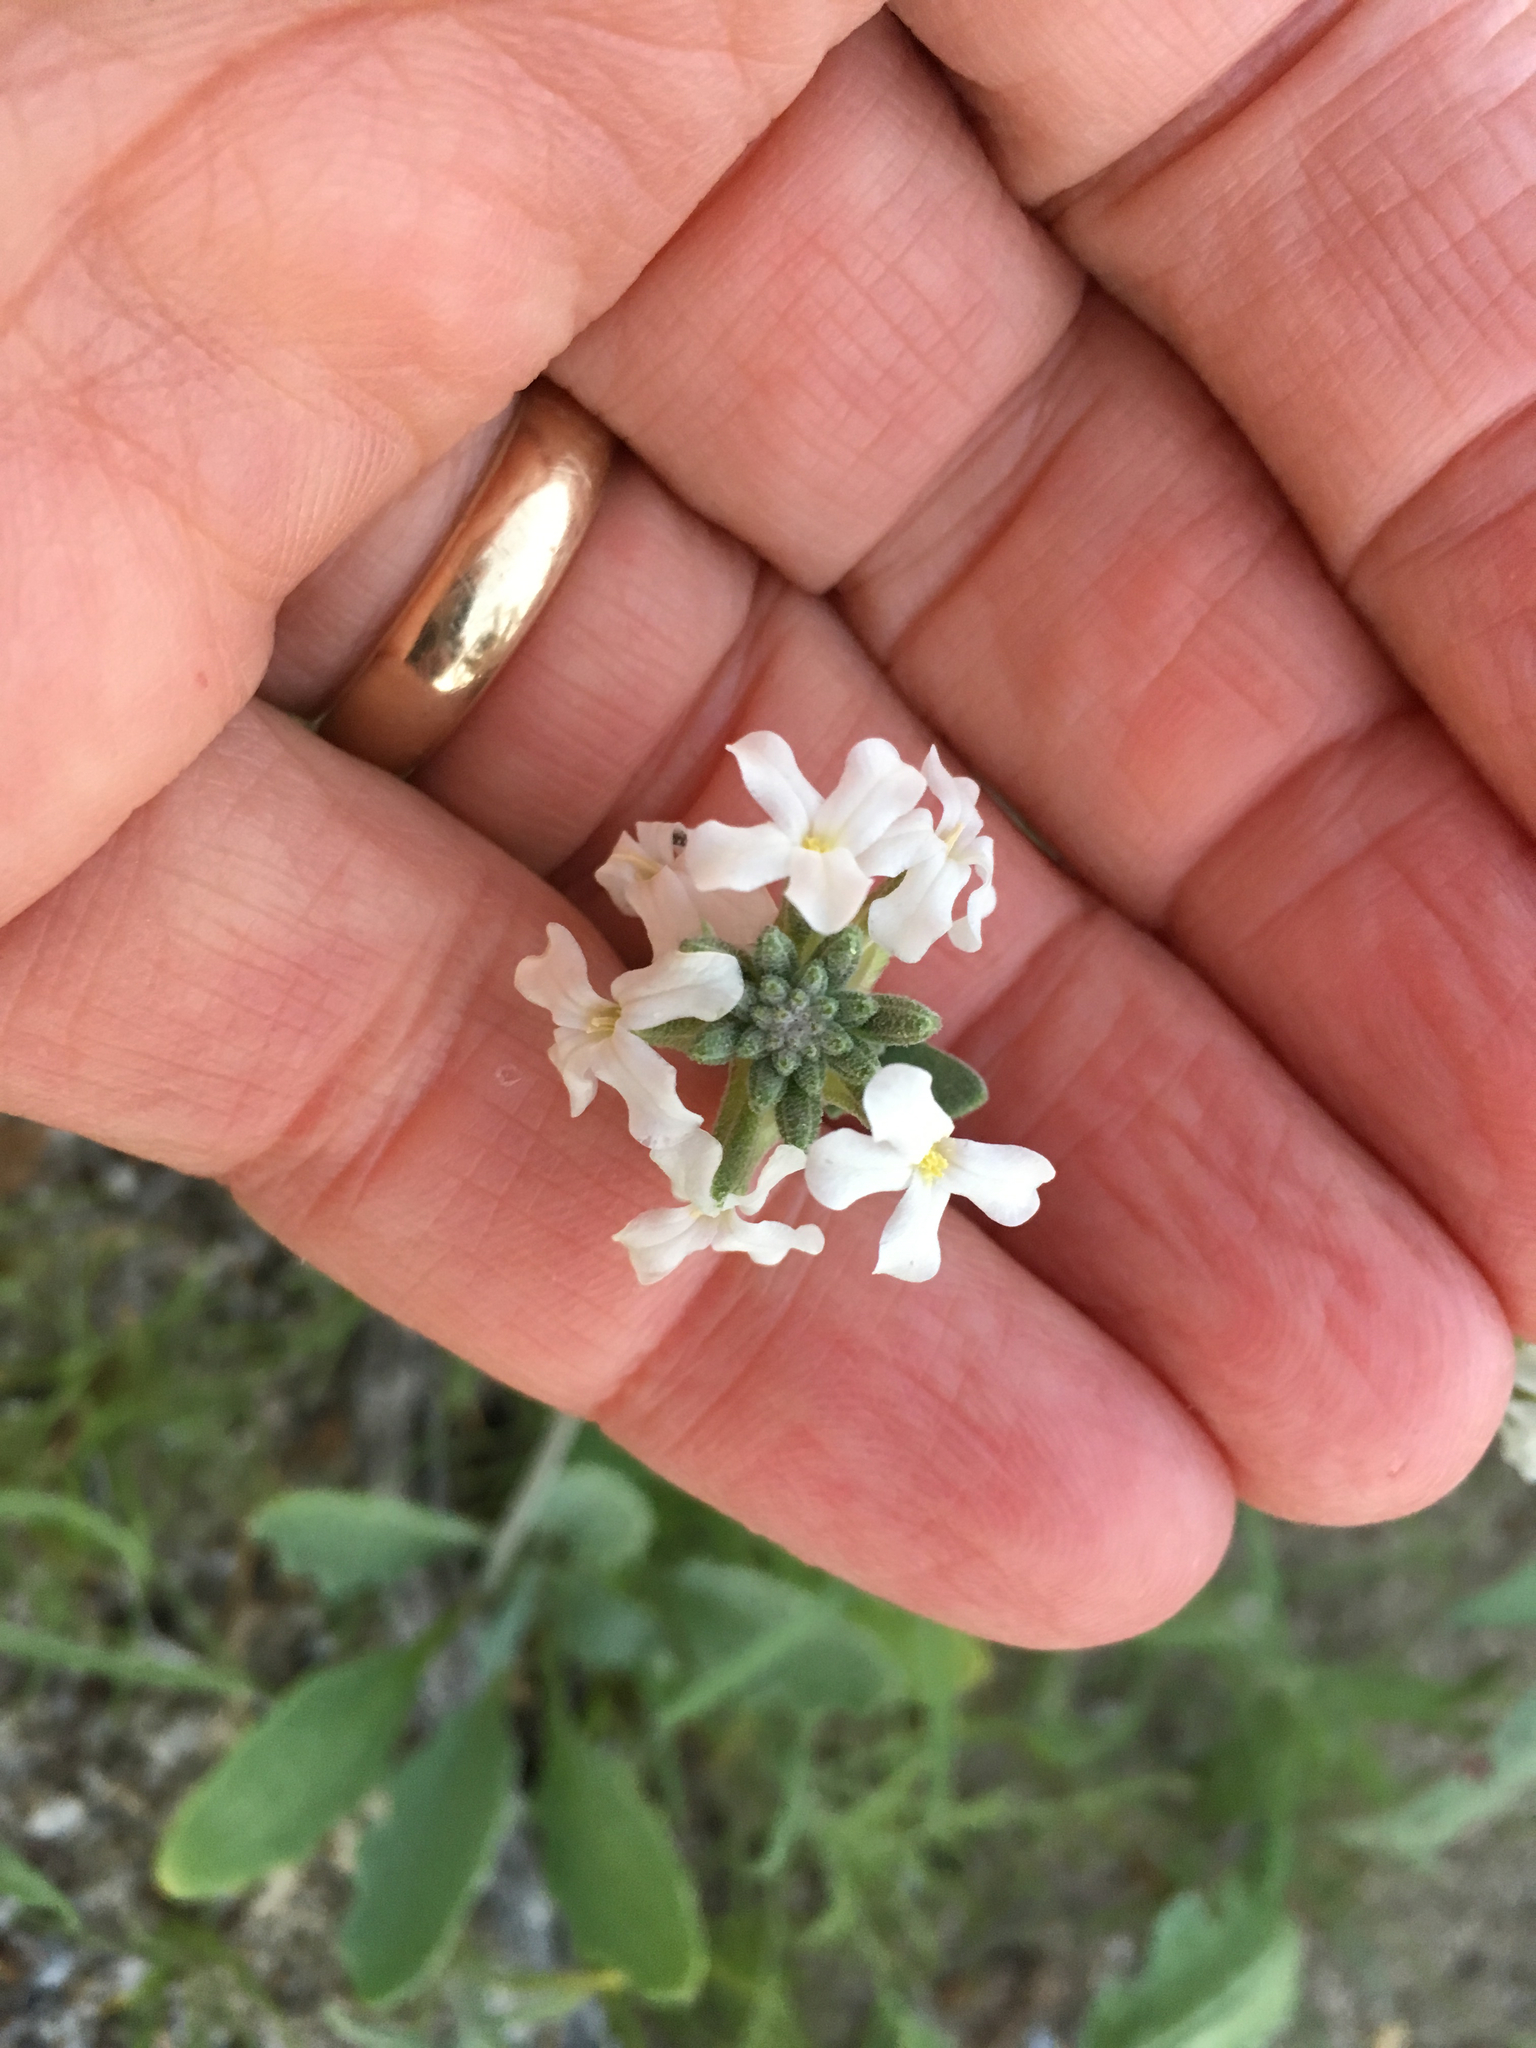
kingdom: Plantae
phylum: Tracheophyta
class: Magnoliopsida
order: Brassicales
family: Brassicaceae
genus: Dithyrea
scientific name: Dithyrea californica
